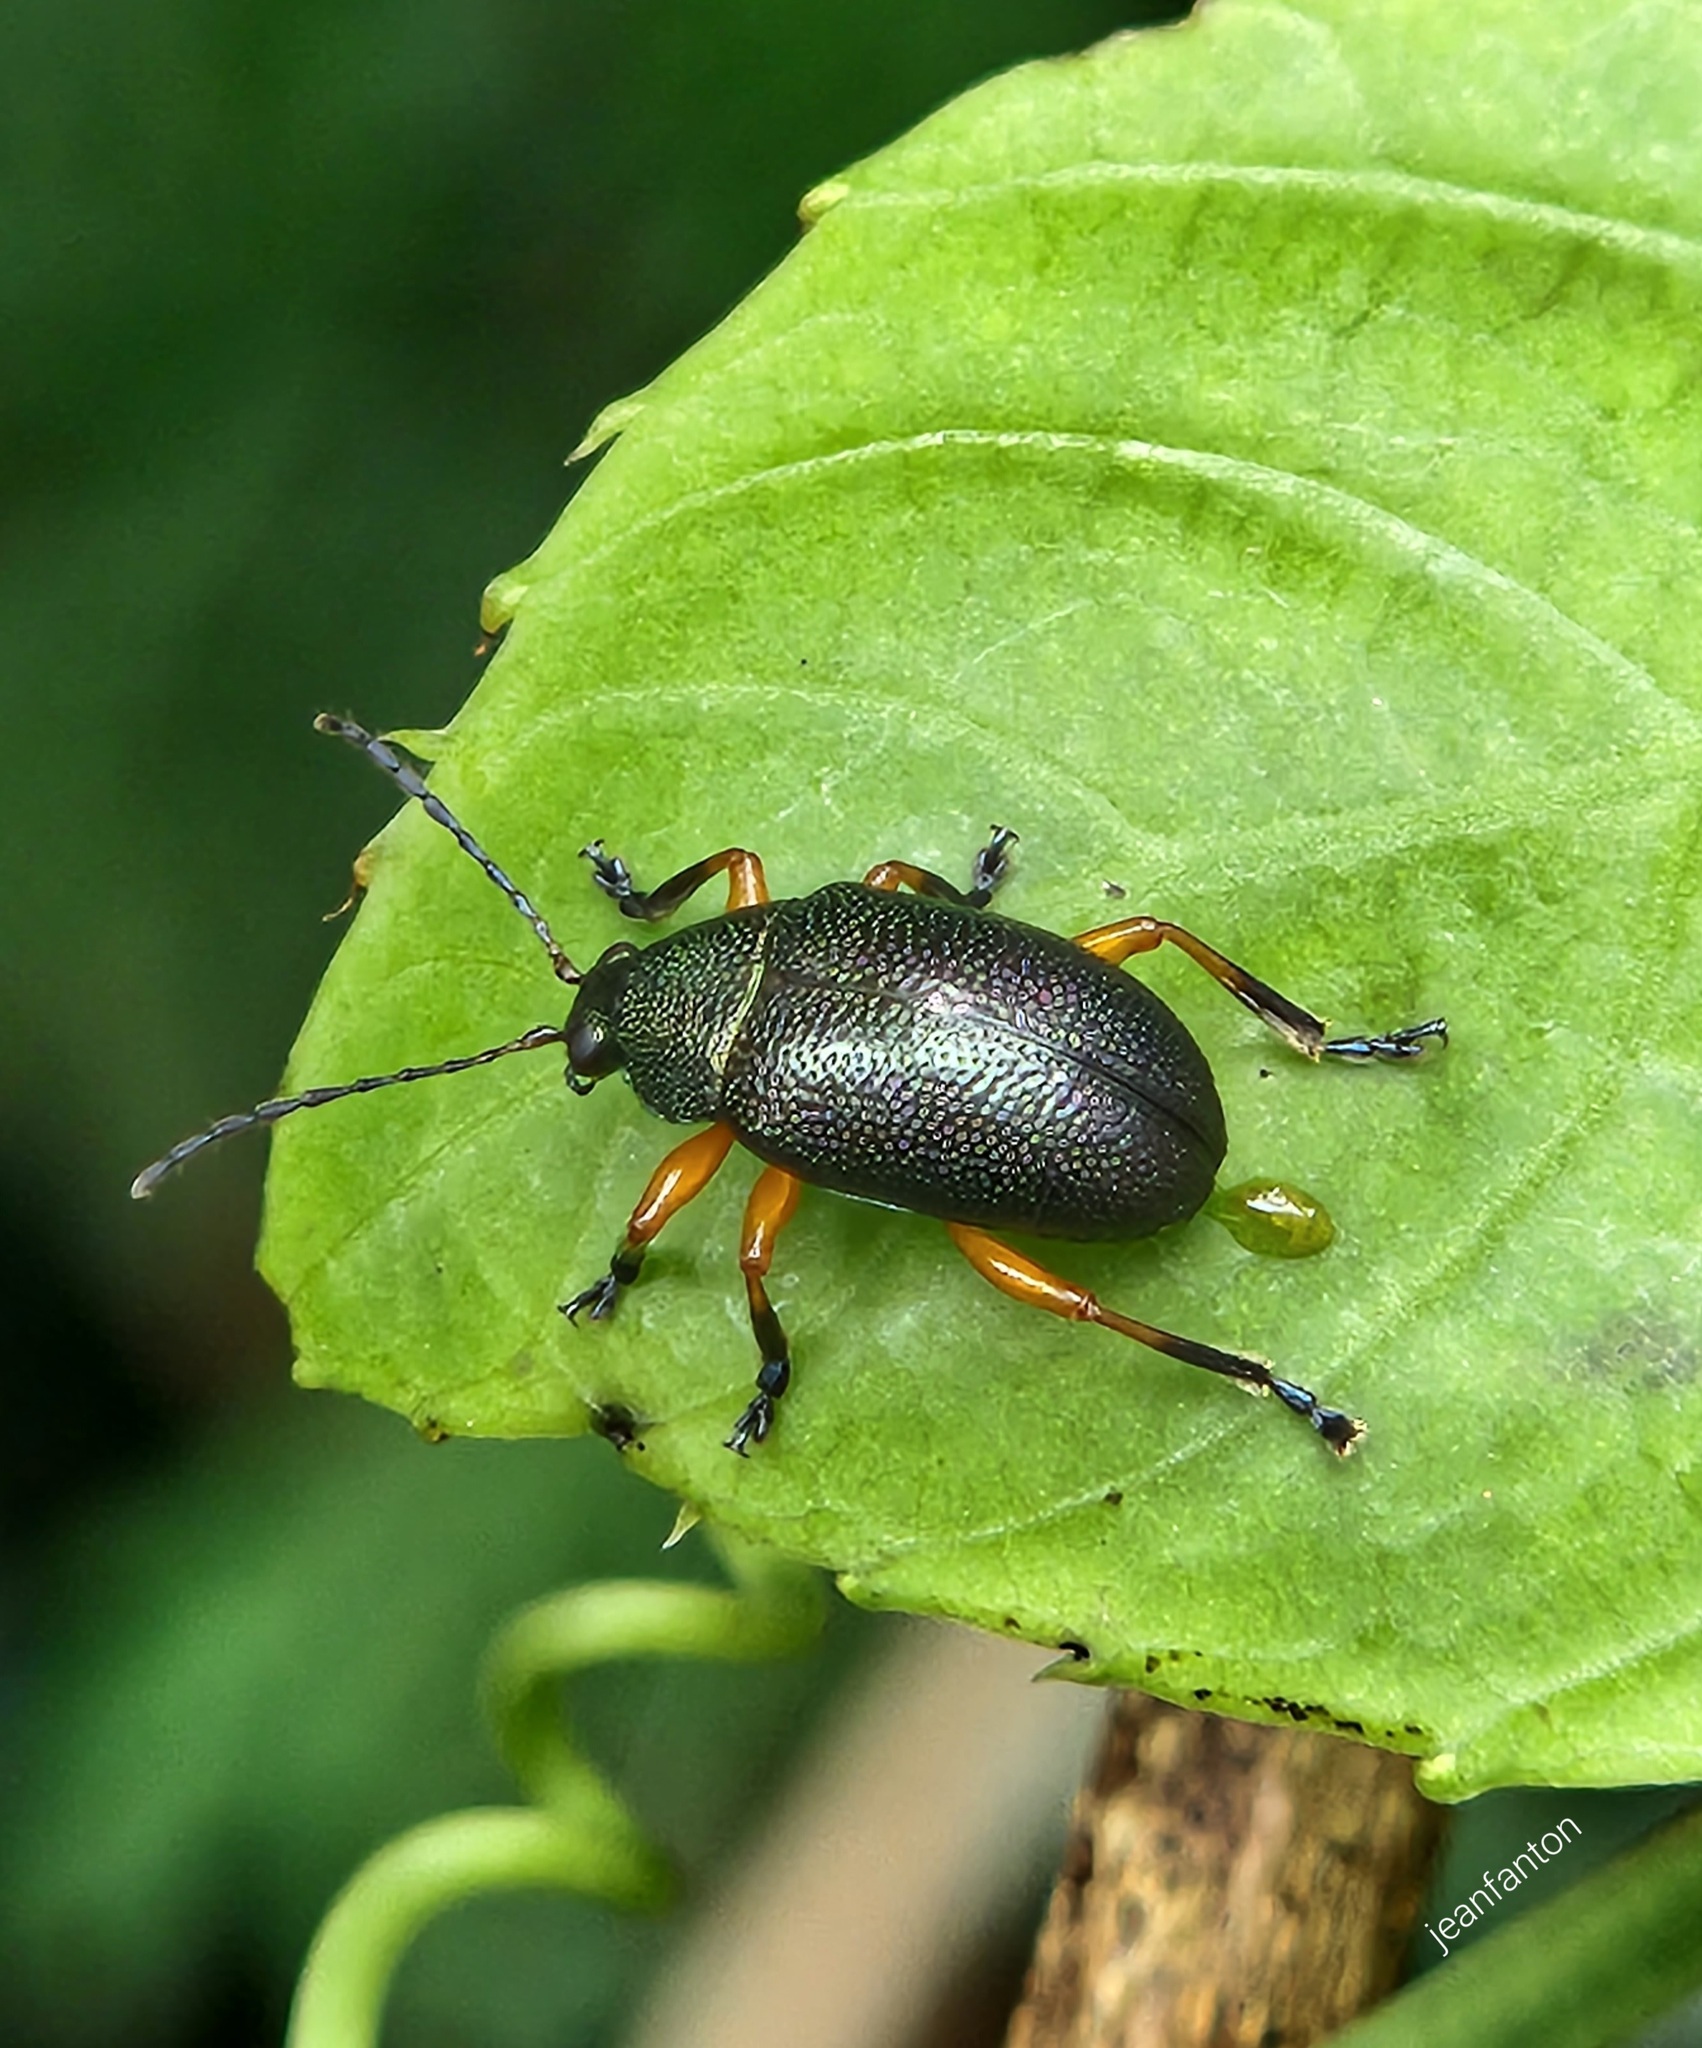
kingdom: Animalia
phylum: Arthropoda
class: Insecta
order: Coleoptera
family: Chrysomelidae
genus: Nodocolaspis
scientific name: Nodocolaspis
